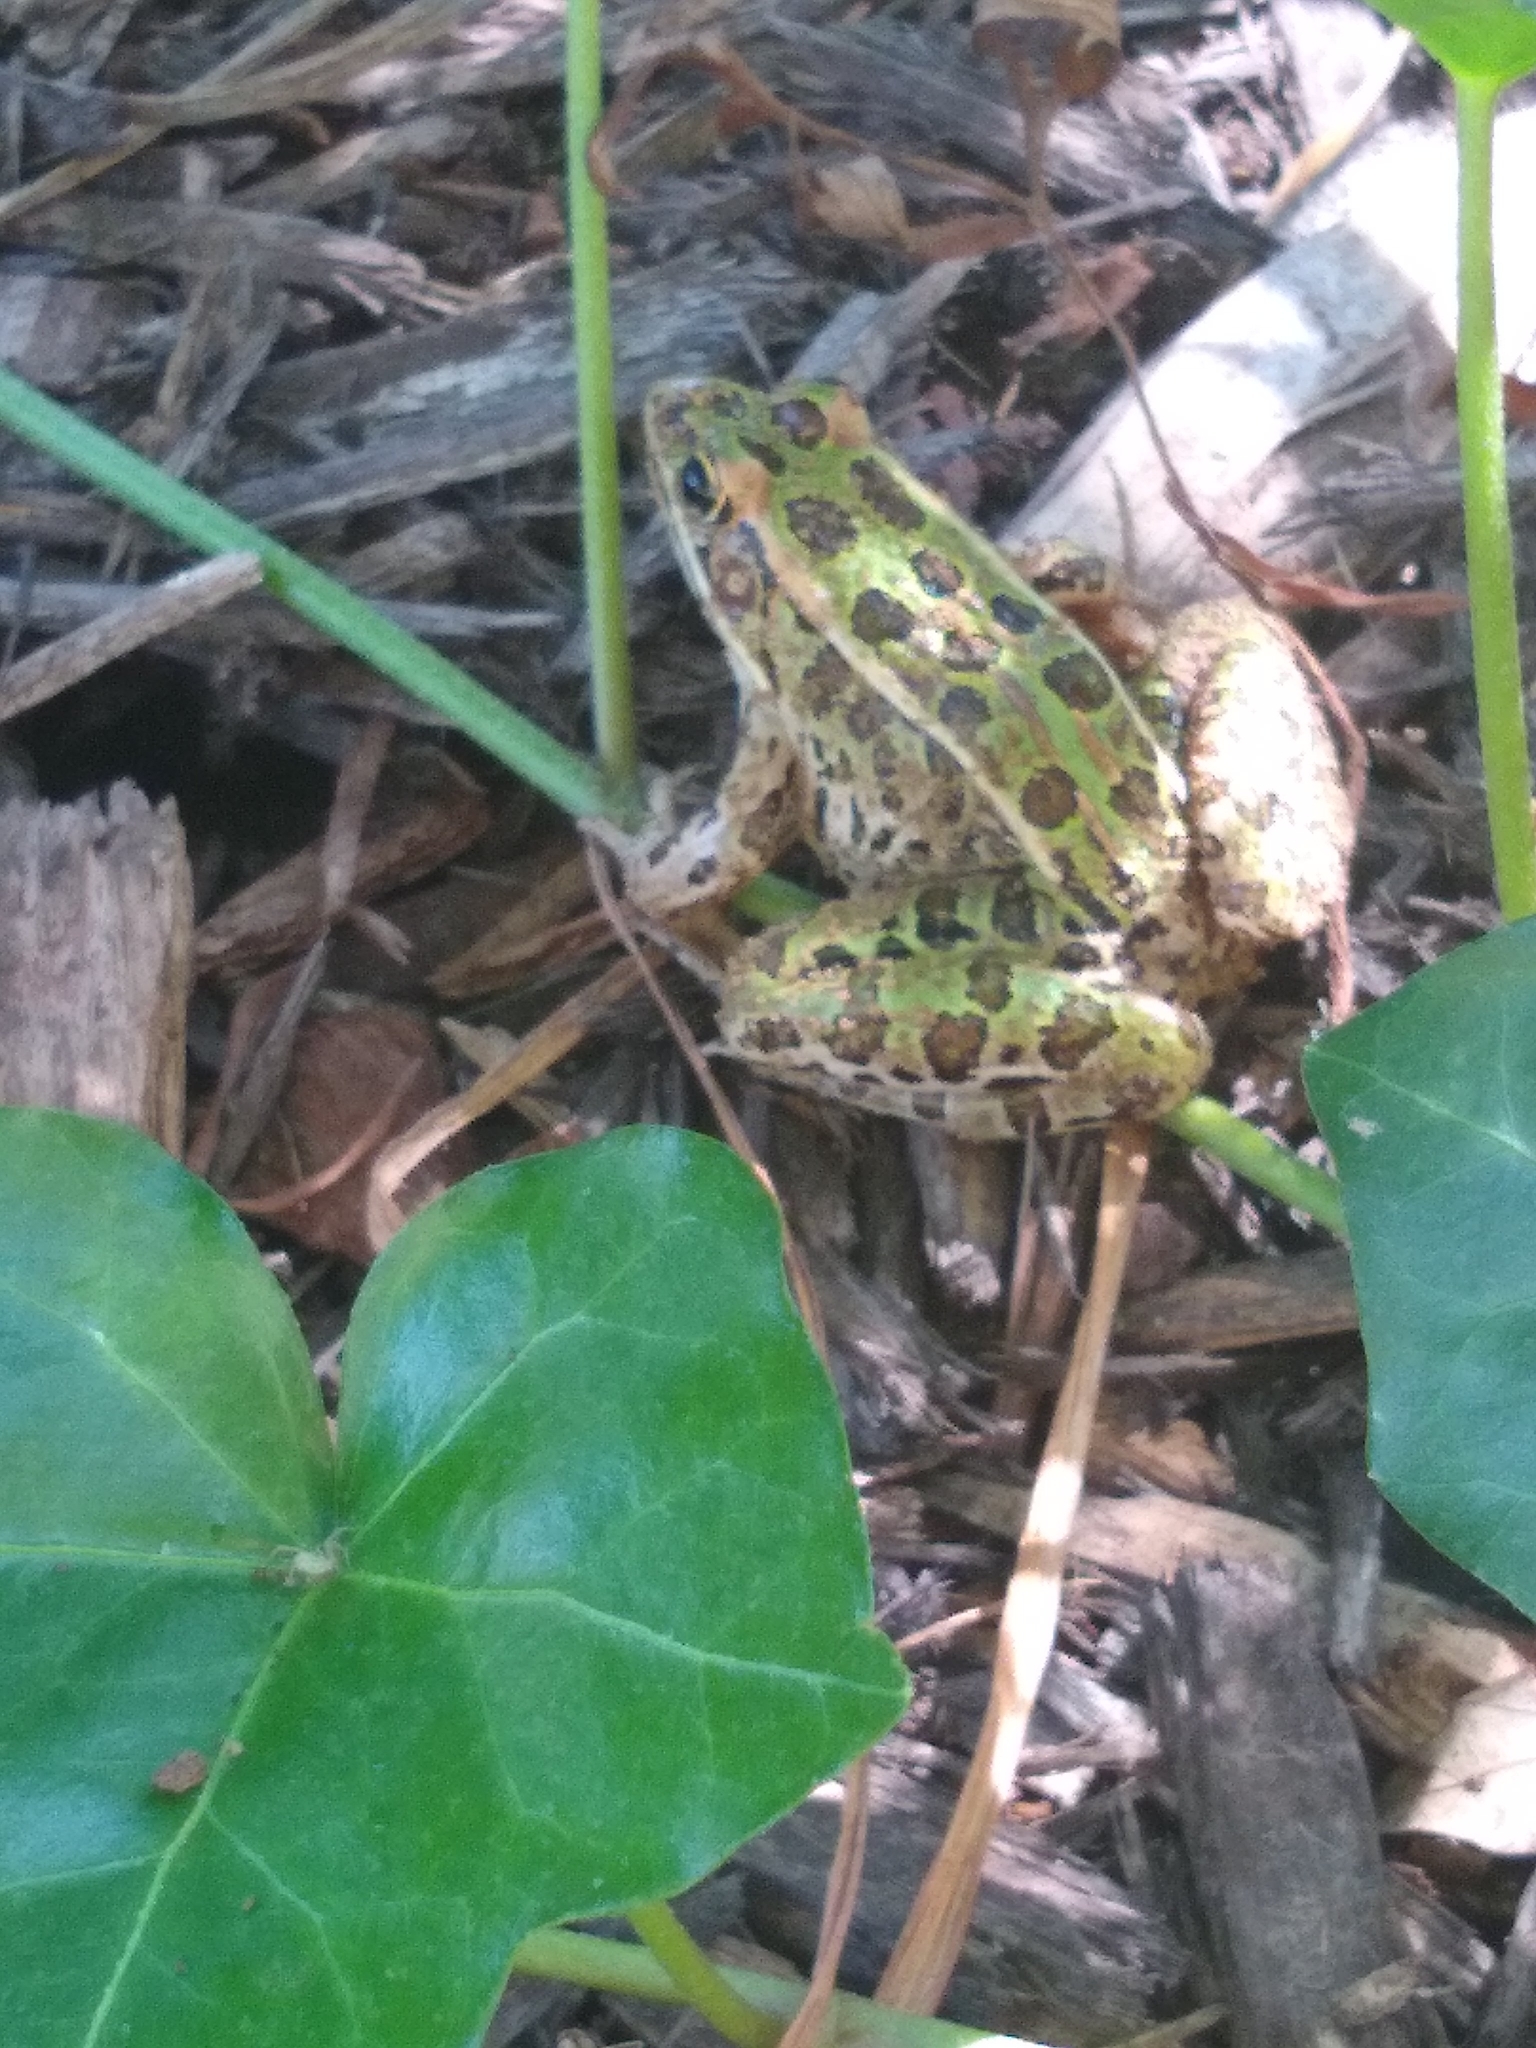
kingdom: Animalia
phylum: Chordata
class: Amphibia
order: Anura
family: Ranidae
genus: Lithobates
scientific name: Lithobates pipiens
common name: Northern leopard frog
